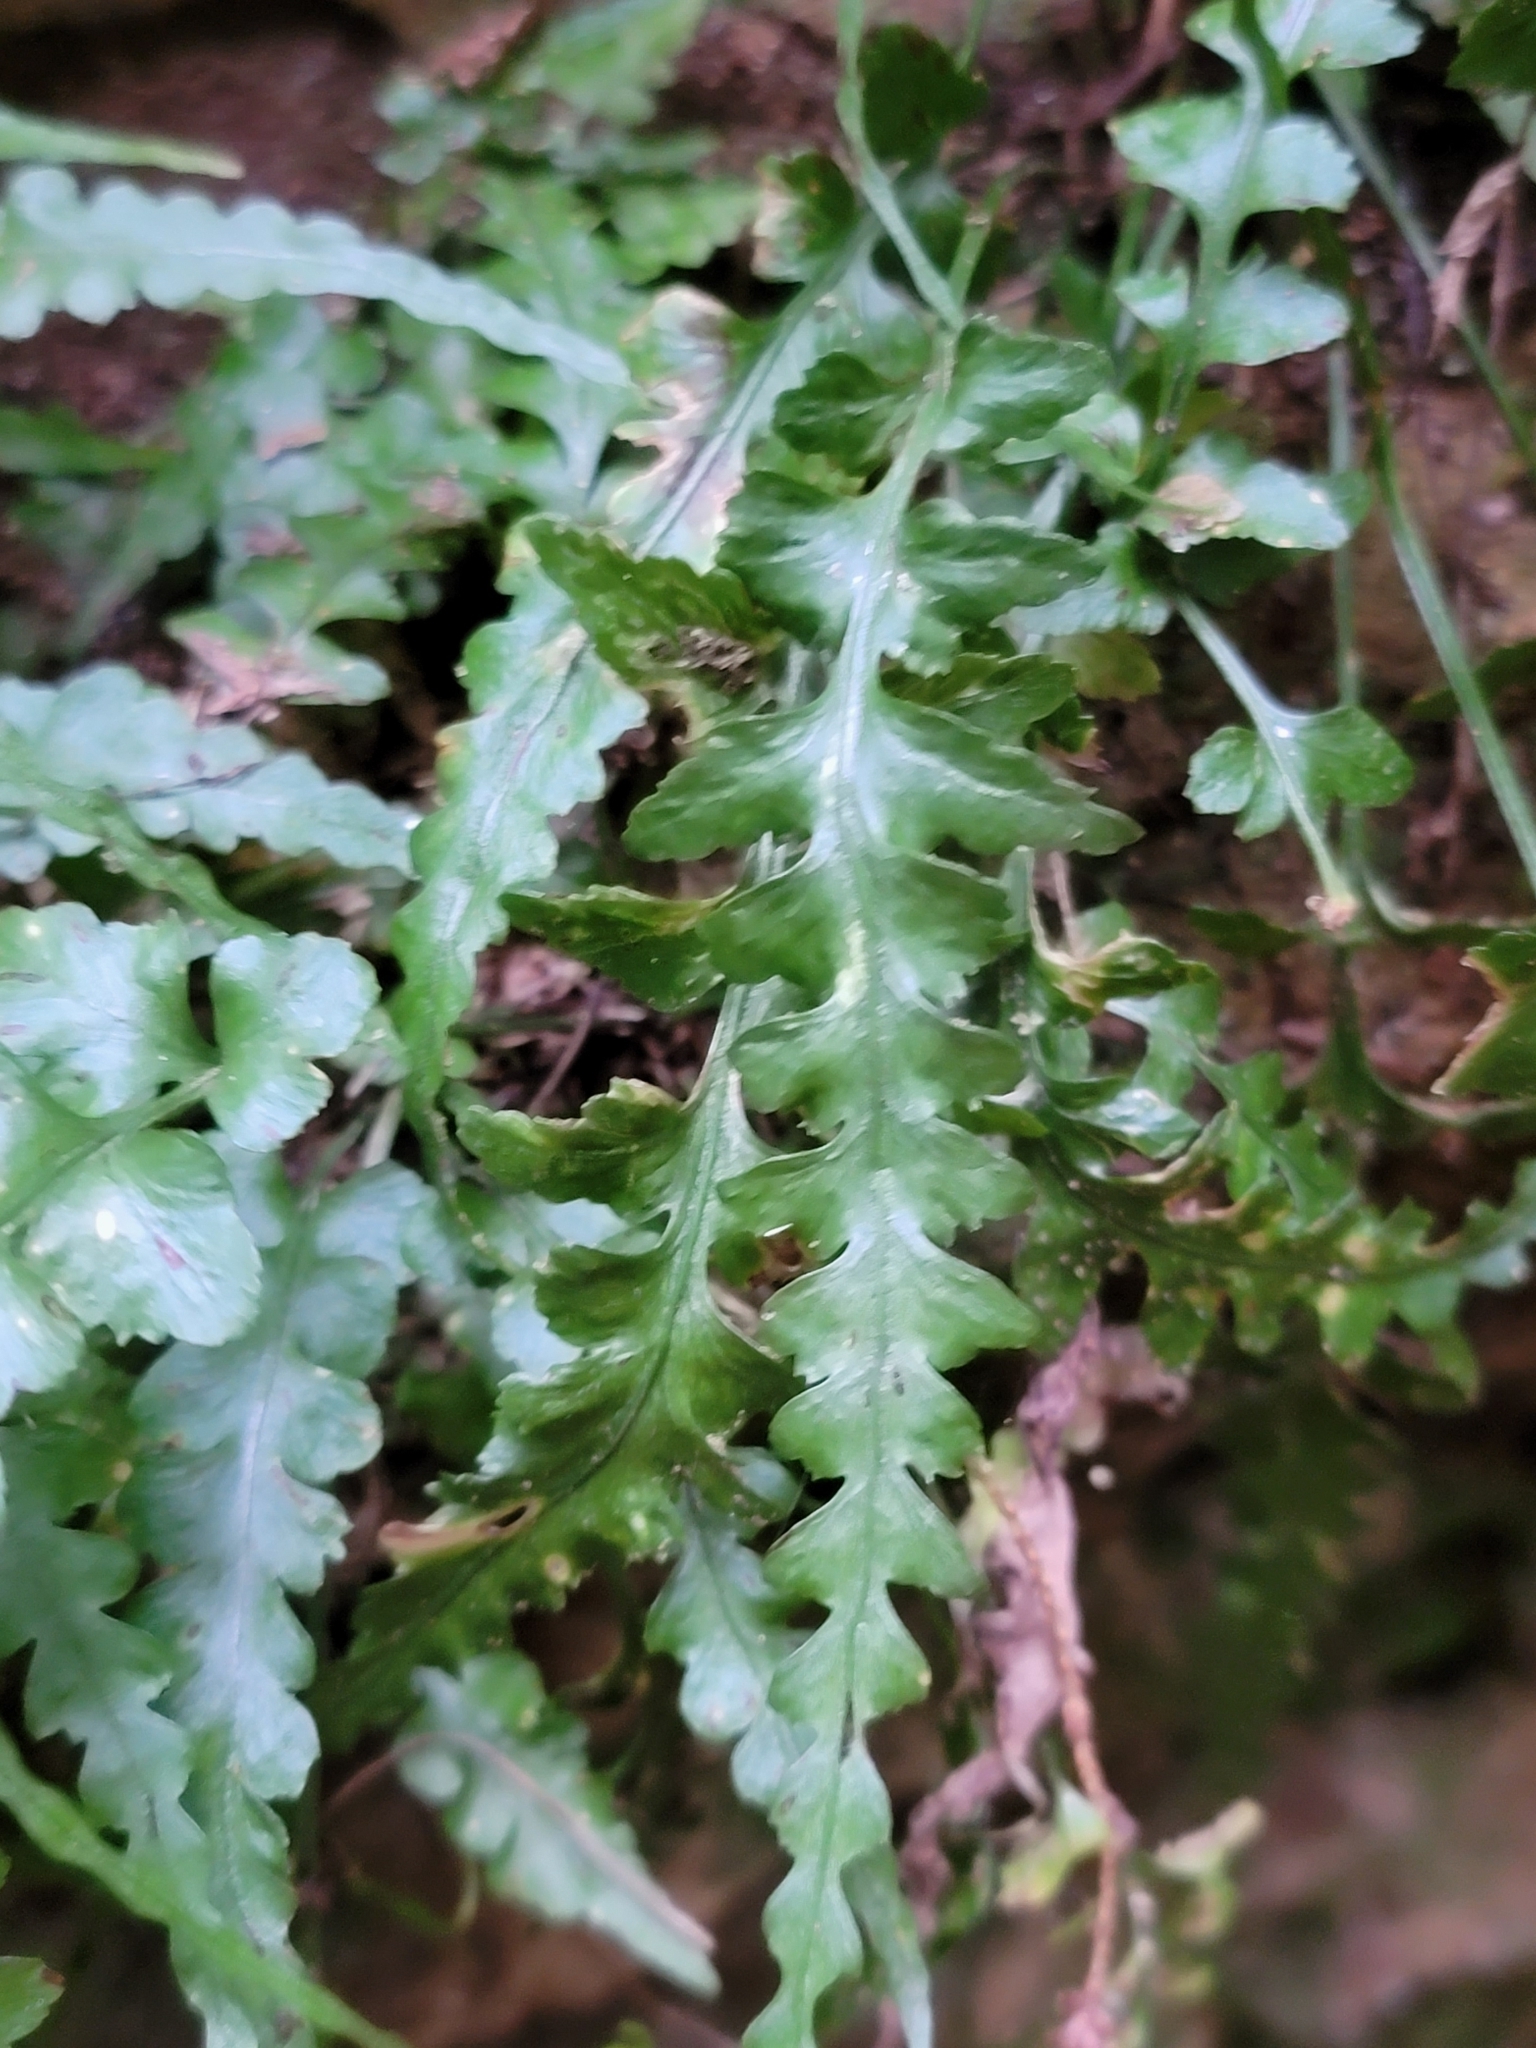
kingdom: Plantae
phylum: Tracheophyta
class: Polypodiopsida
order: Polypodiales
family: Aspleniaceae
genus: Asplenium
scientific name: Asplenium pinnatifidum
